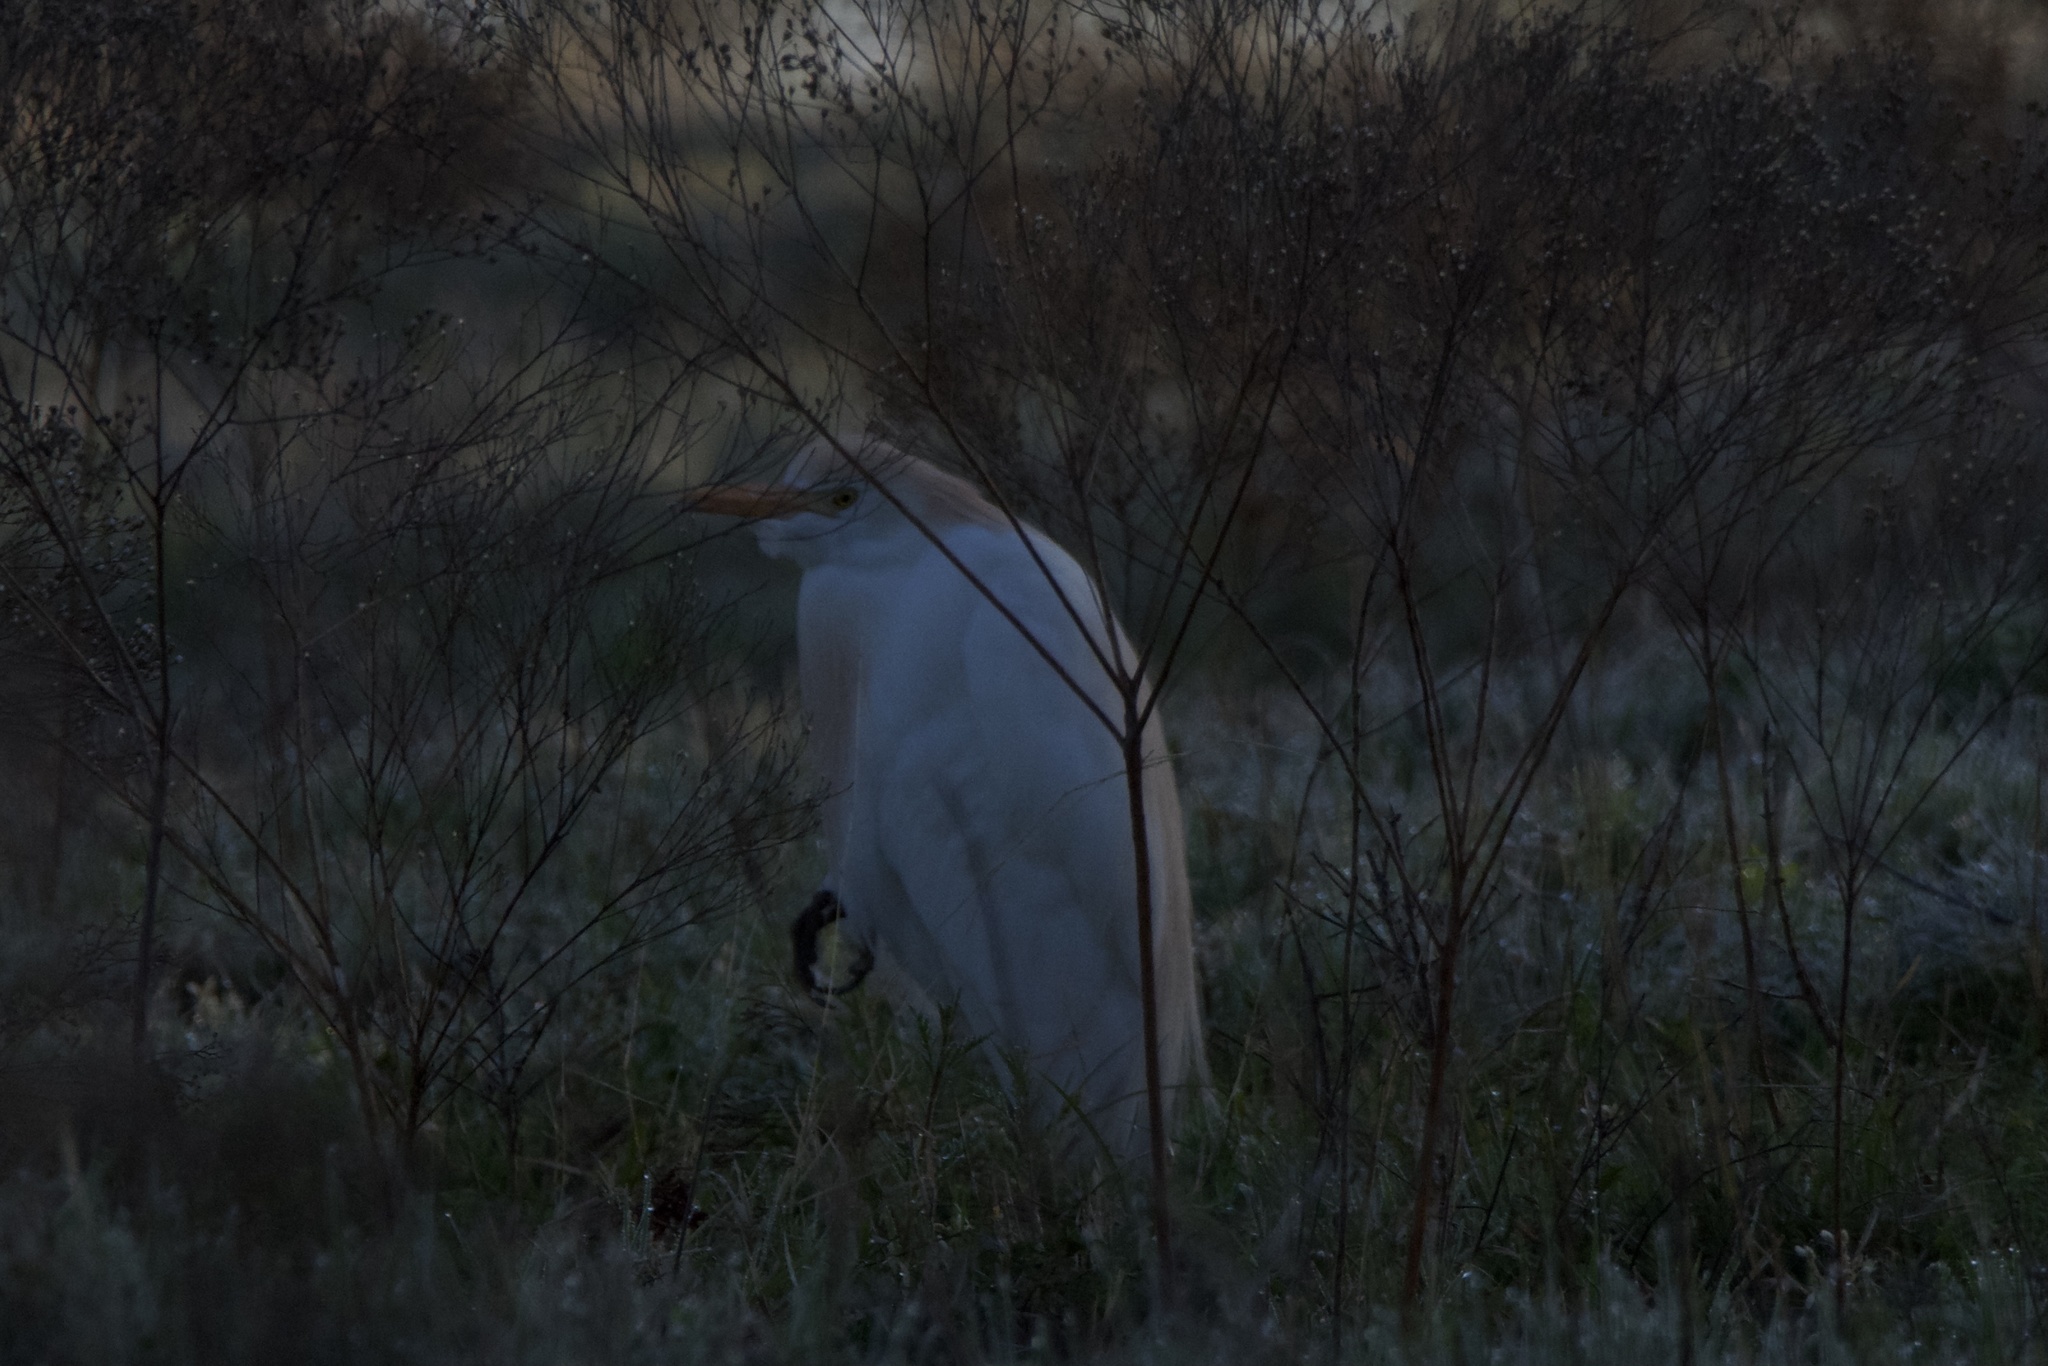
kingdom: Animalia
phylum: Chordata
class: Aves
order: Pelecaniformes
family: Ardeidae
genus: Bubulcus
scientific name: Bubulcus ibis
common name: Cattle egret
